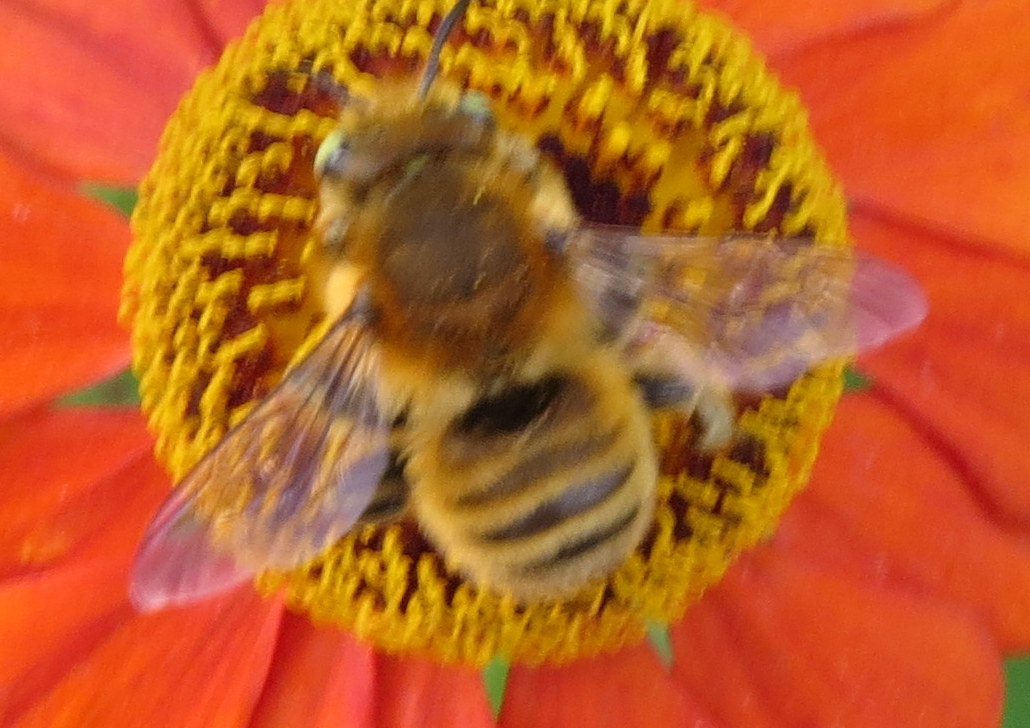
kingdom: Animalia
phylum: Arthropoda
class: Insecta
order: Hymenoptera
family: Megachilidae
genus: Megachile
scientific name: Megachile latimanus
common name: Leafcutting bee
